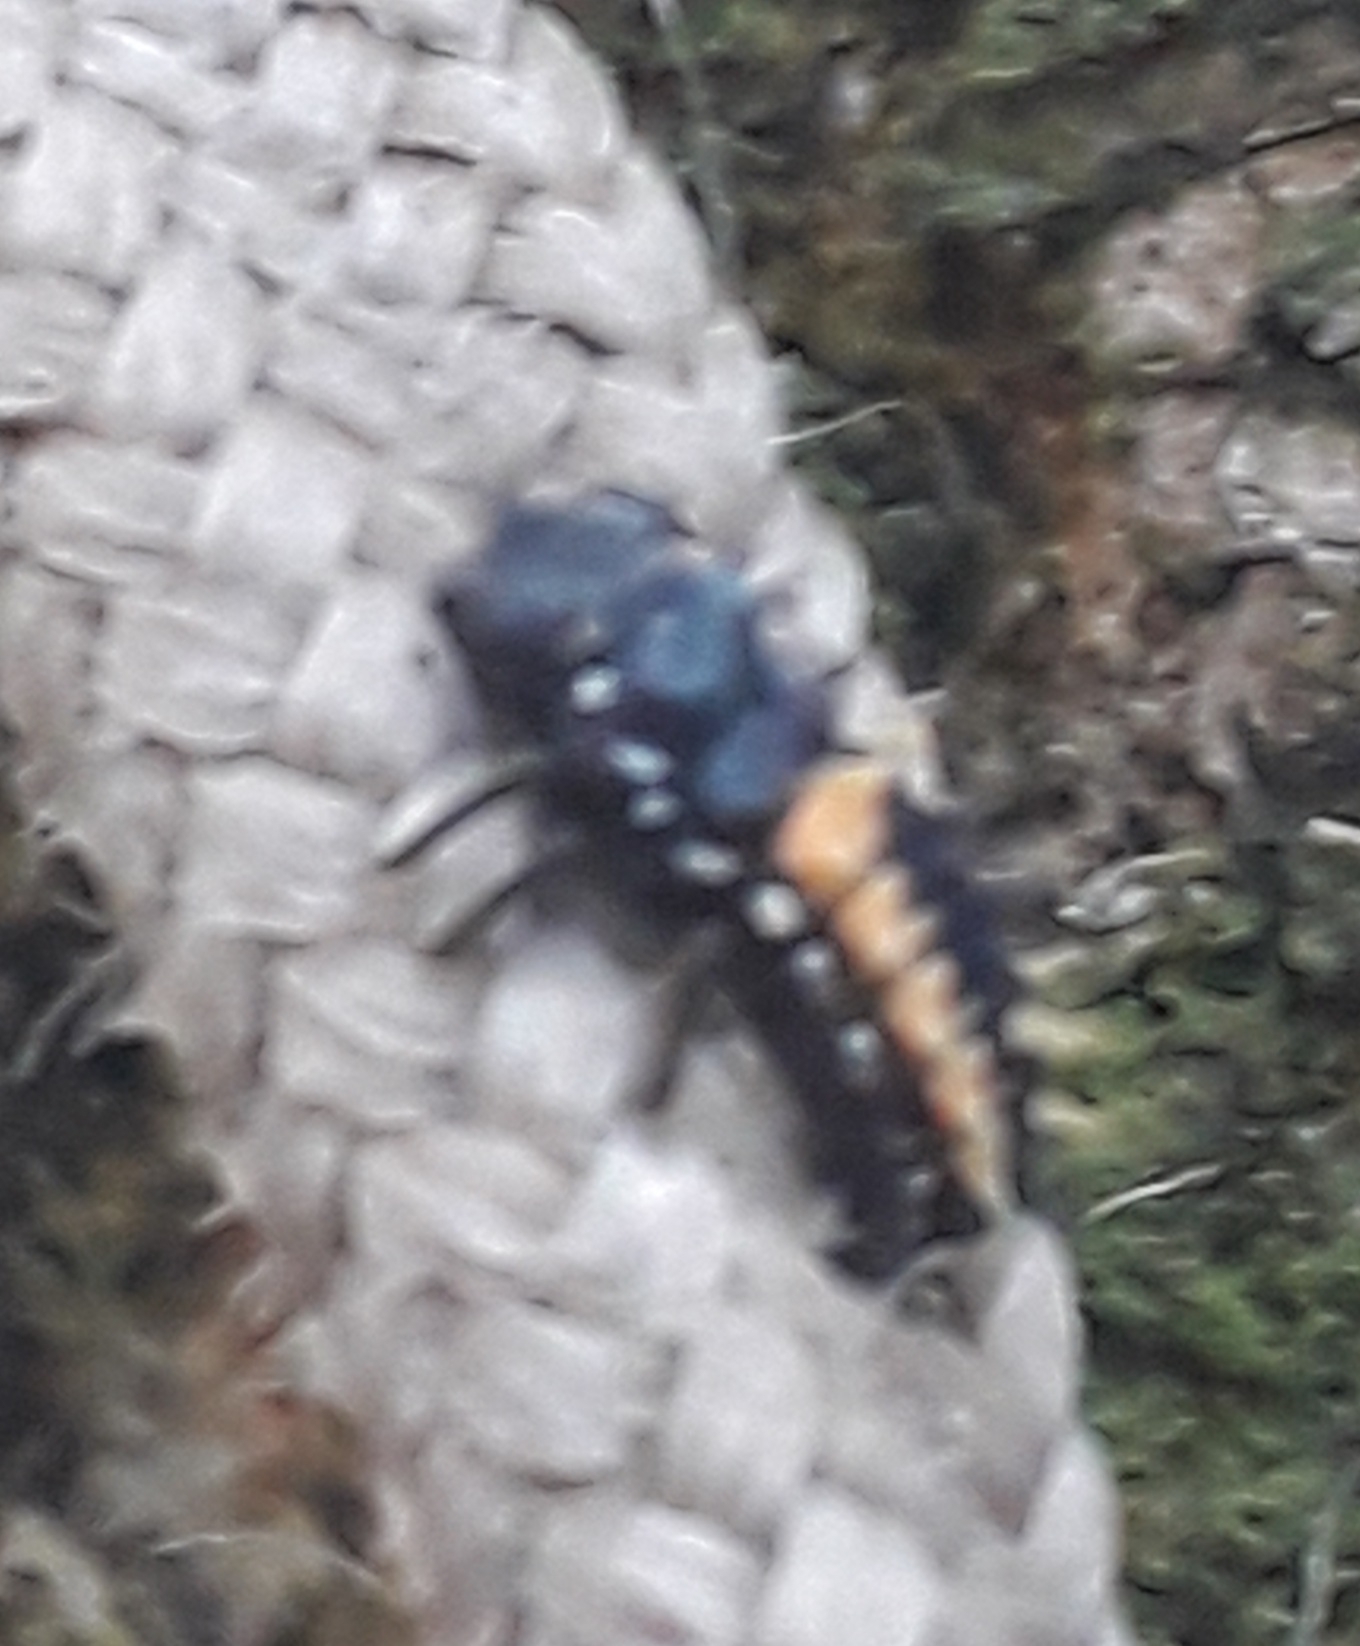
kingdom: Animalia
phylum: Arthropoda
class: Insecta
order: Coleoptera
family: Coccinellidae
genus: Harmonia
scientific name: Harmonia axyridis
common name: Harlequin ladybird
